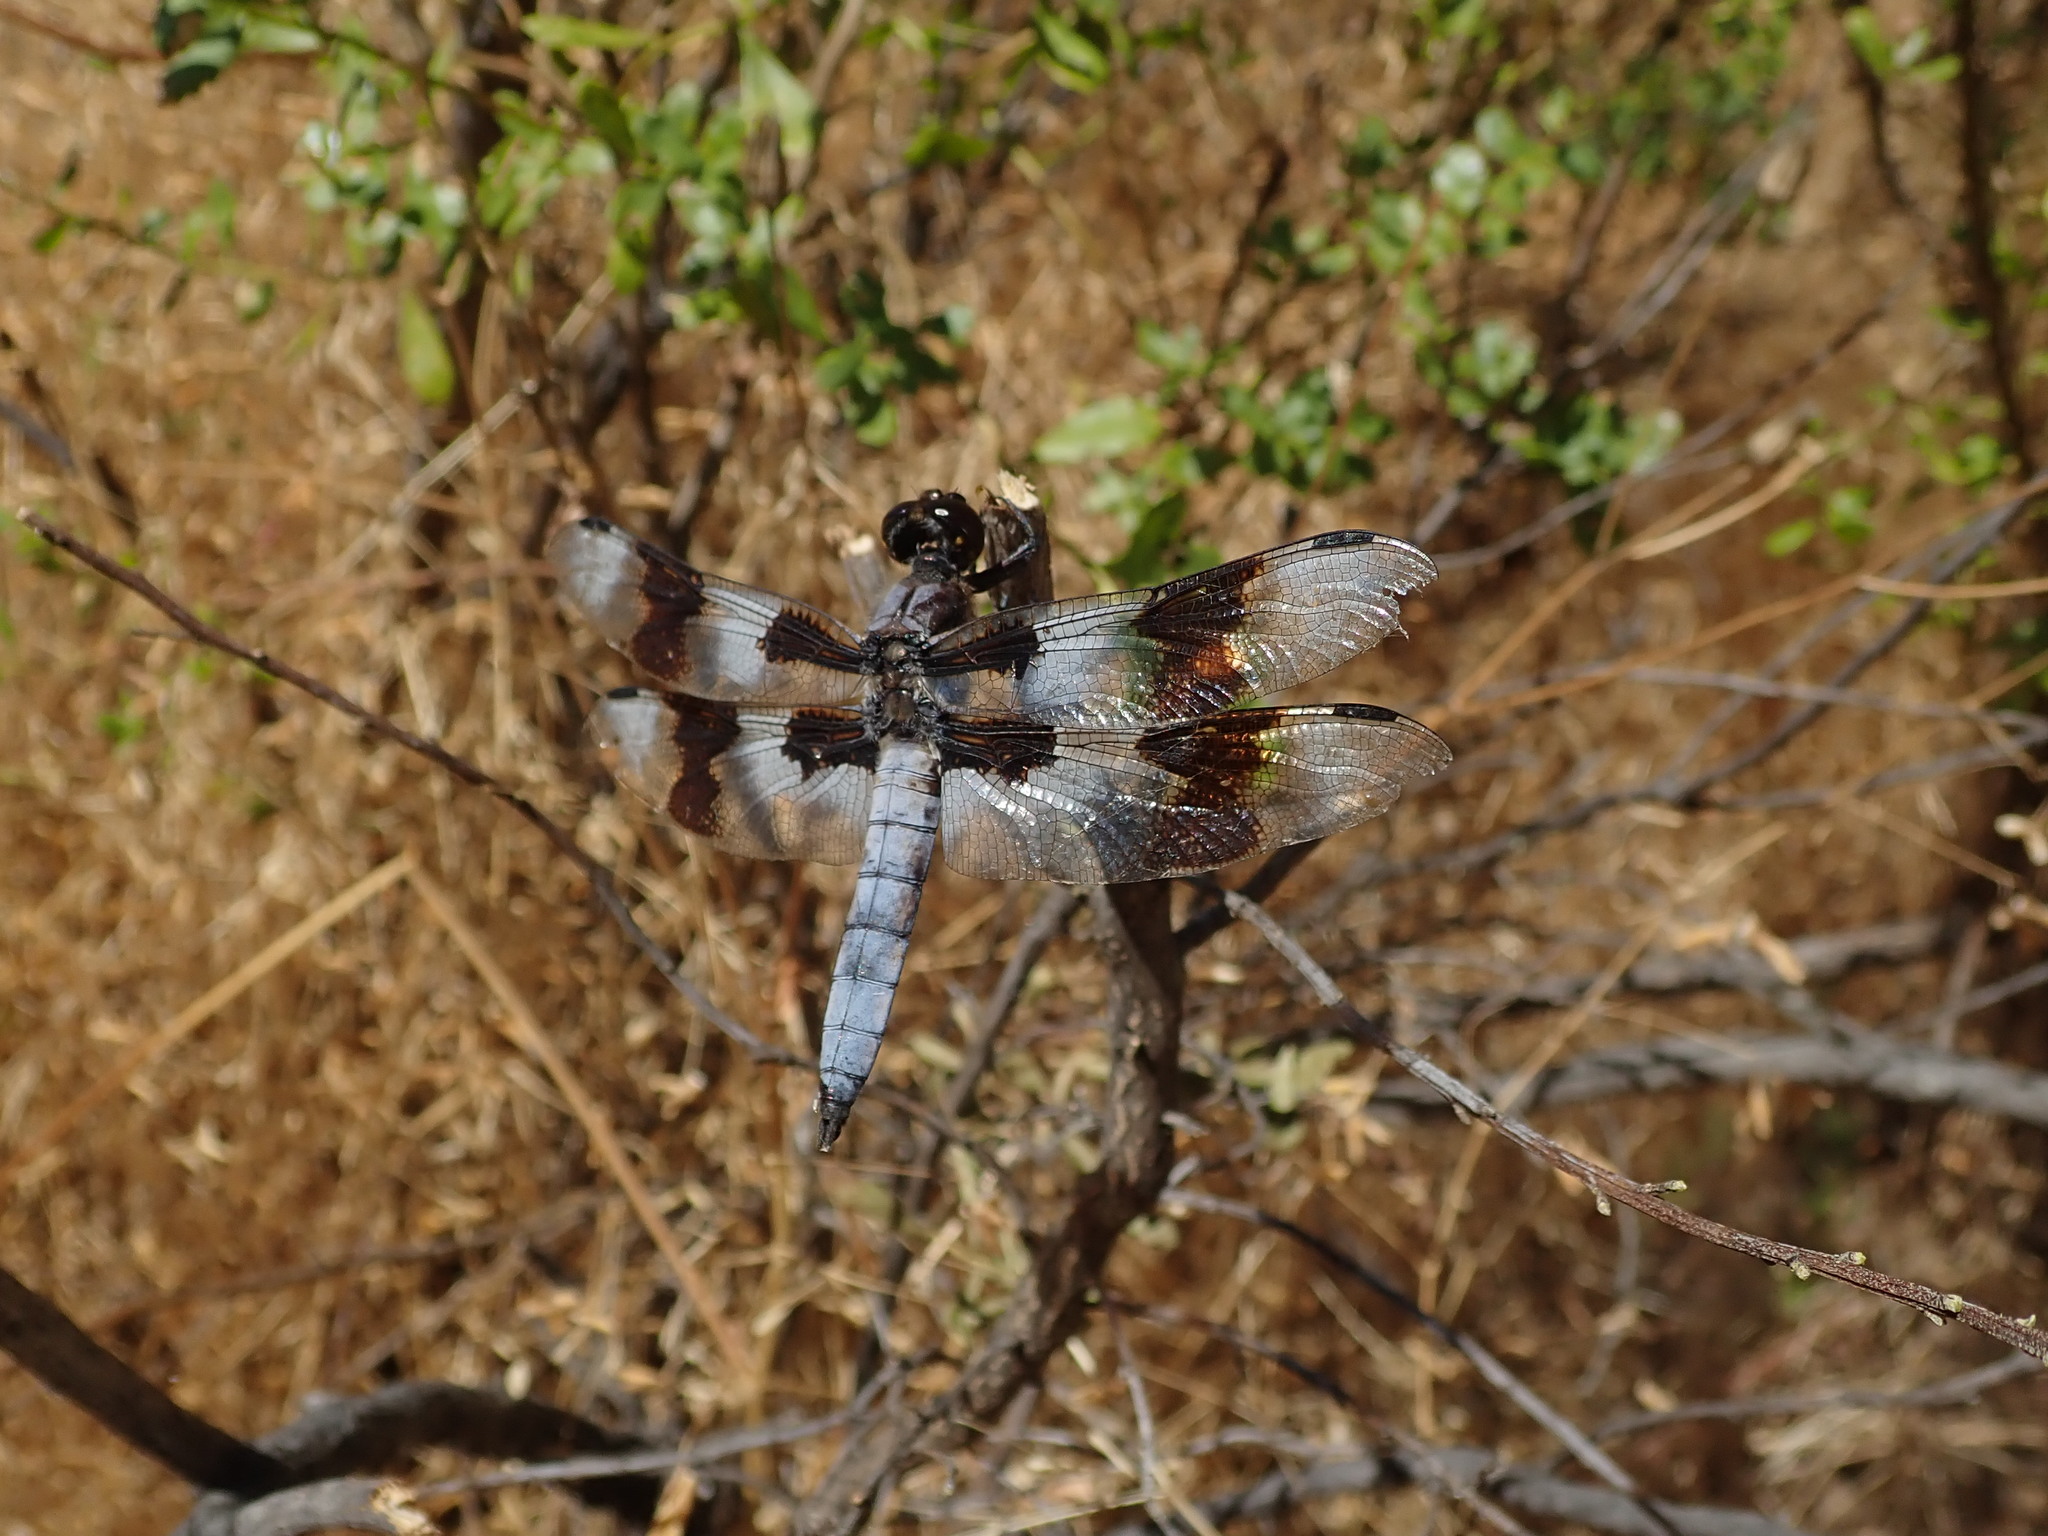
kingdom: Animalia
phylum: Arthropoda
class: Insecta
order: Odonata
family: Libellulidae
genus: Libellula
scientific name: Libellula forensis
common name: Eight-spotted skimmer
